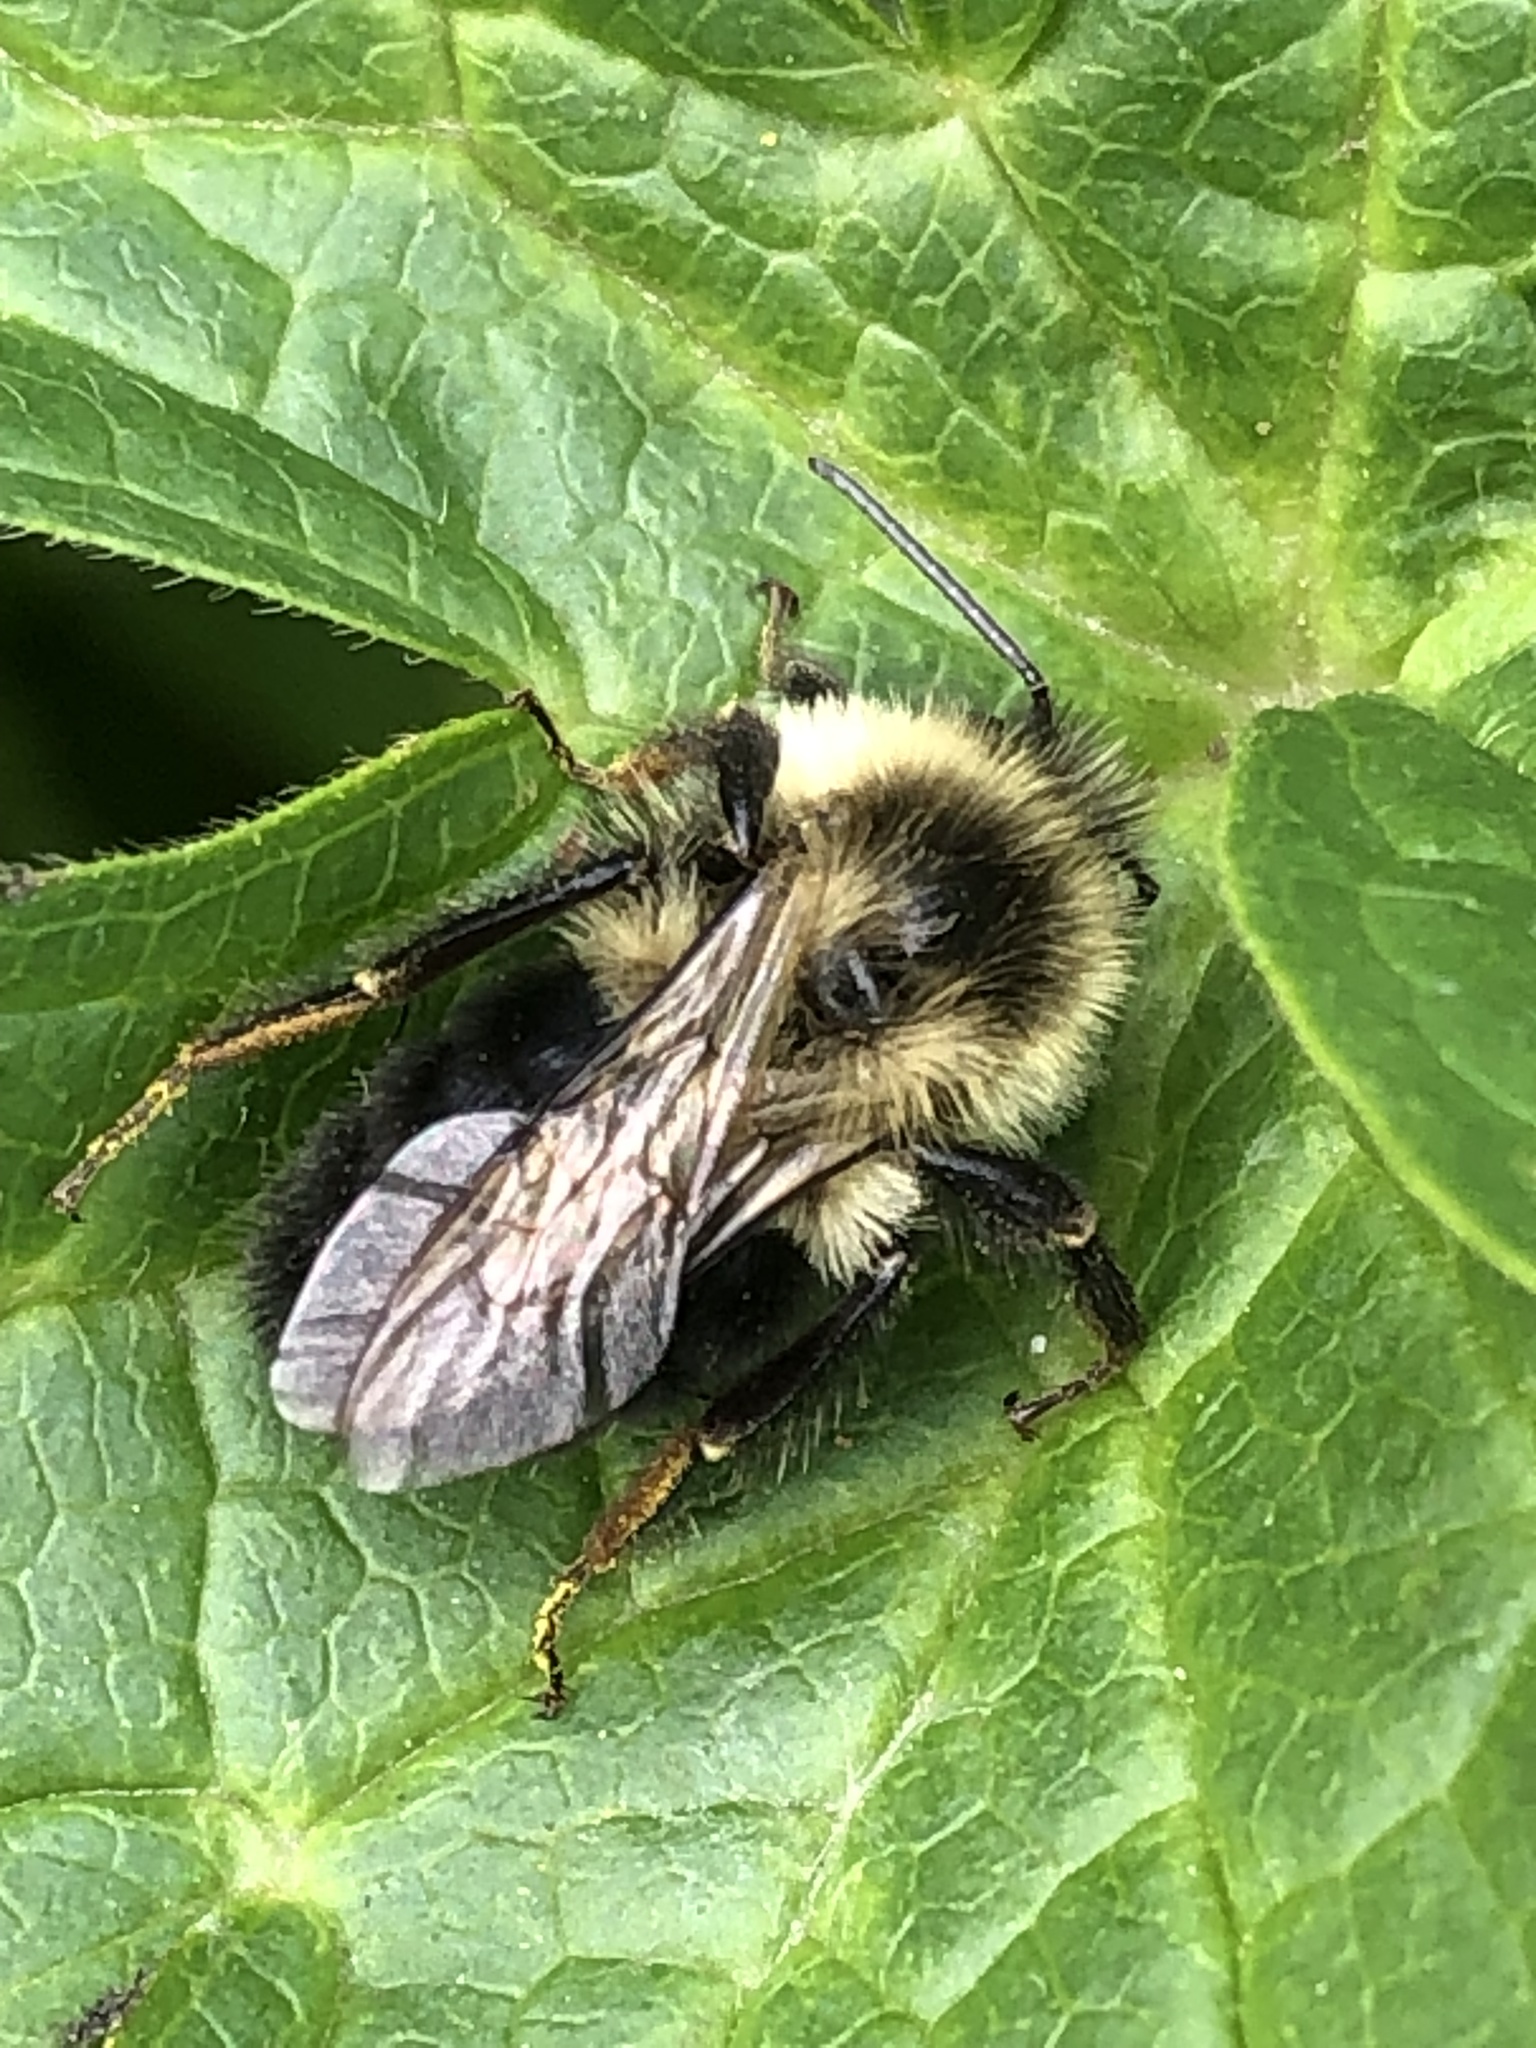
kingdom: Animalia
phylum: Arthropoda
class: Insecta
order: Hymenoptera
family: Apidae
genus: Bombus
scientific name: Bombus impatiens
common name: Common eastern bumble bee
